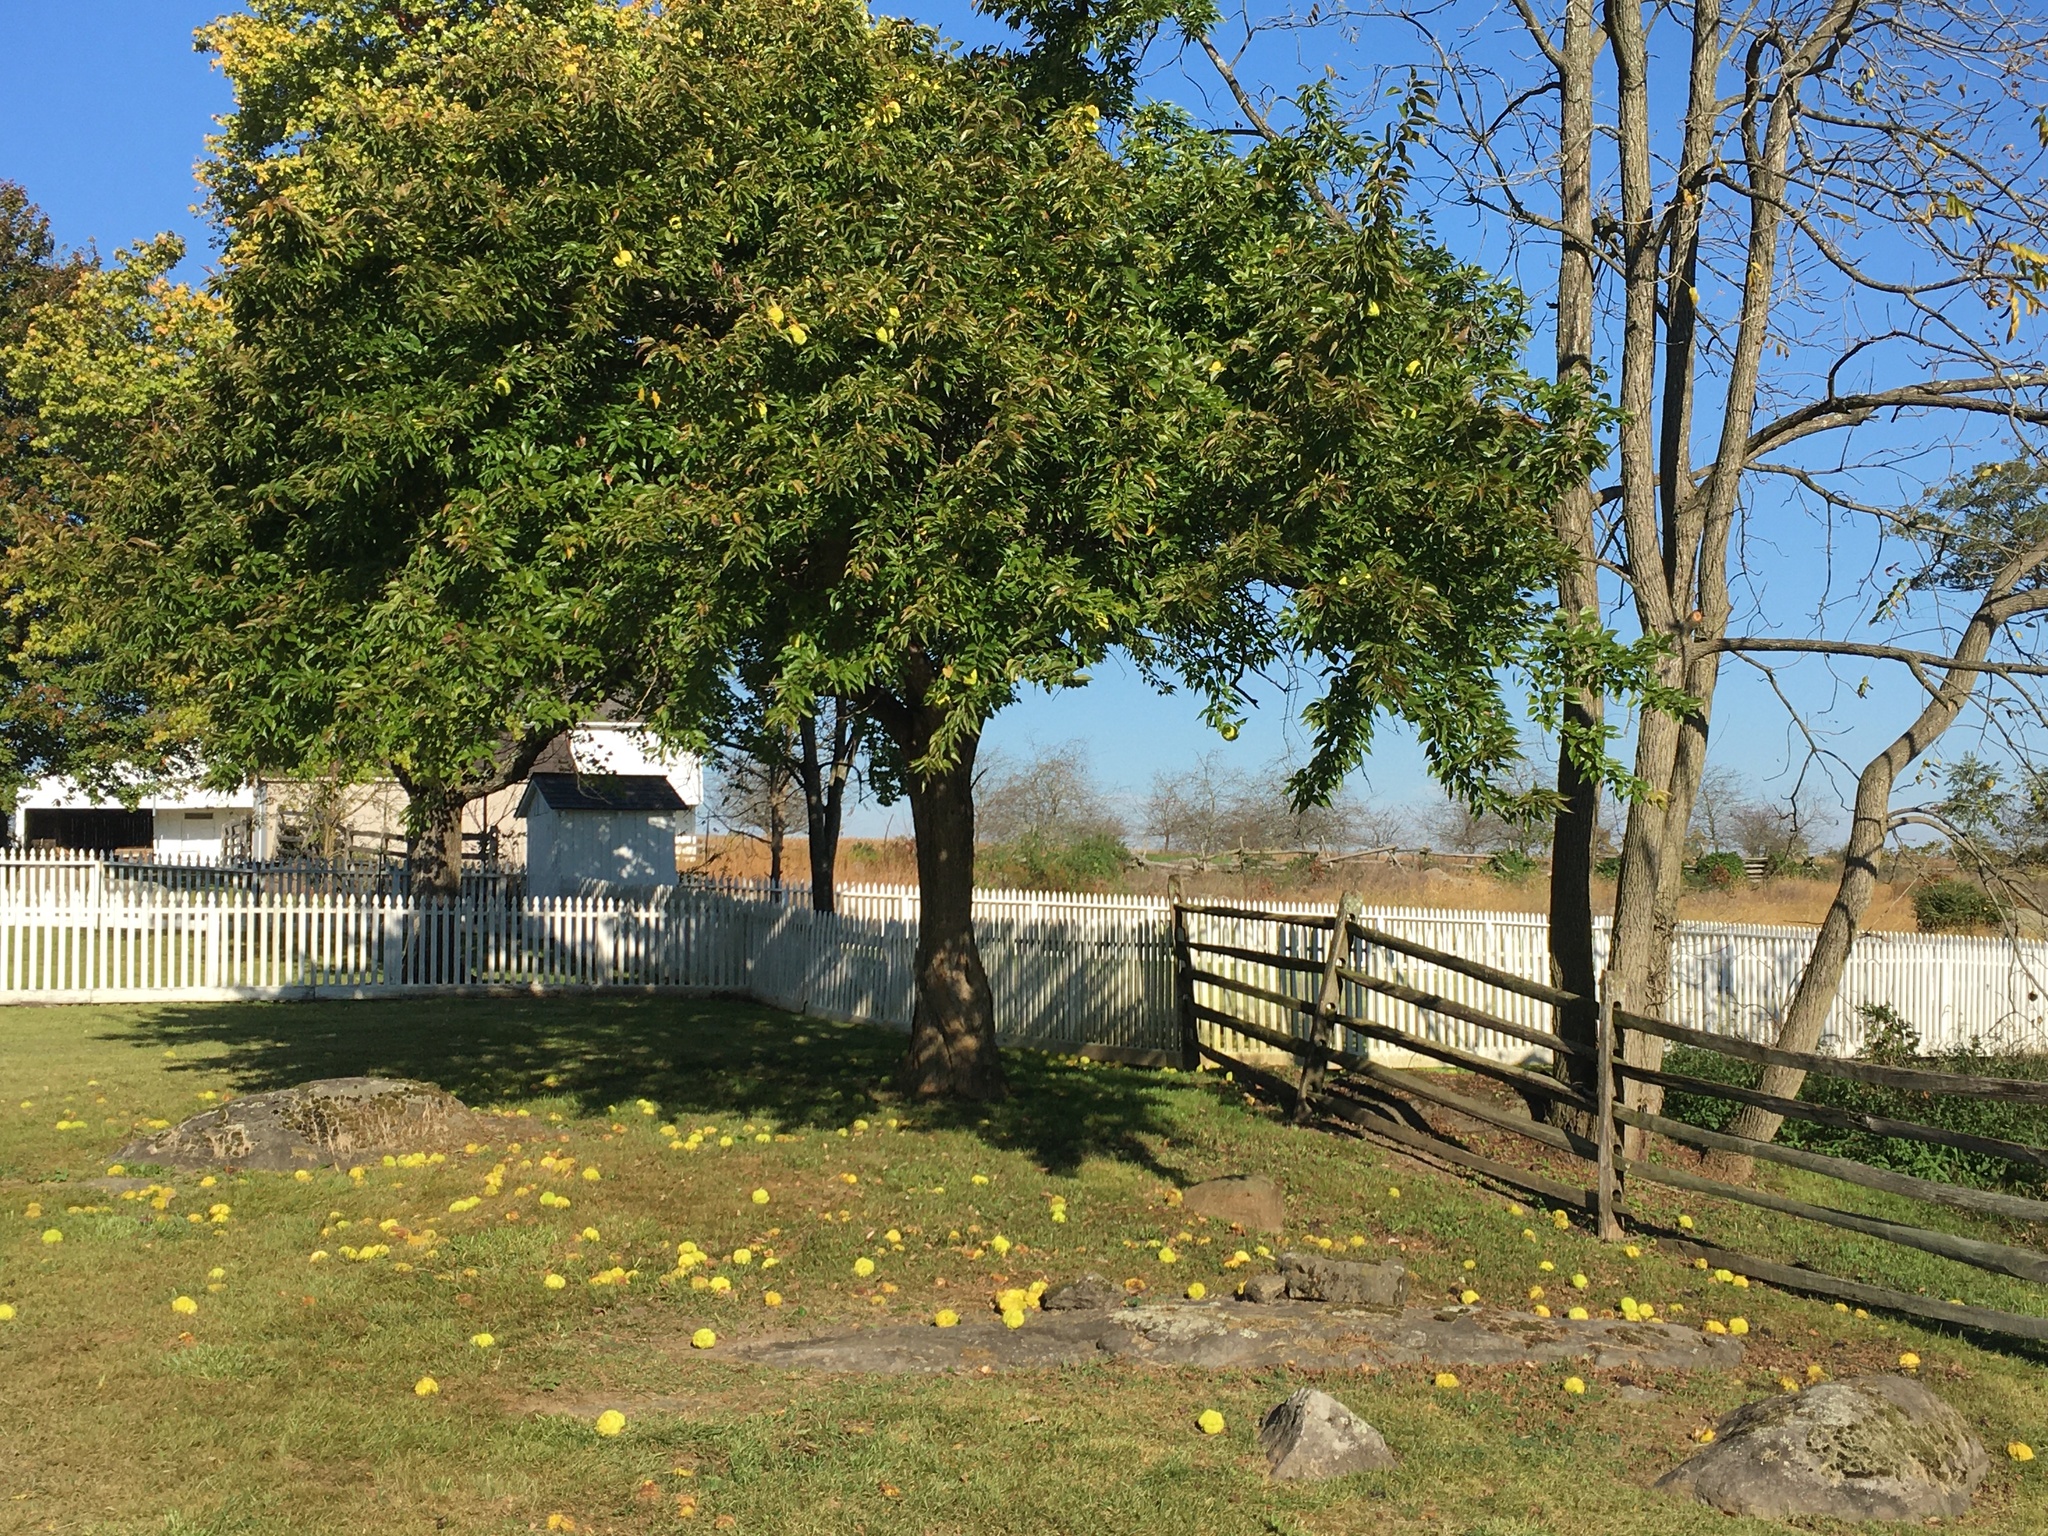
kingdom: Plantae
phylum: Tracheophyta
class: Magnoliopsida
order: Rosales
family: Moraceae
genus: Maclura
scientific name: Maclura pomifera
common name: Osage-orange
